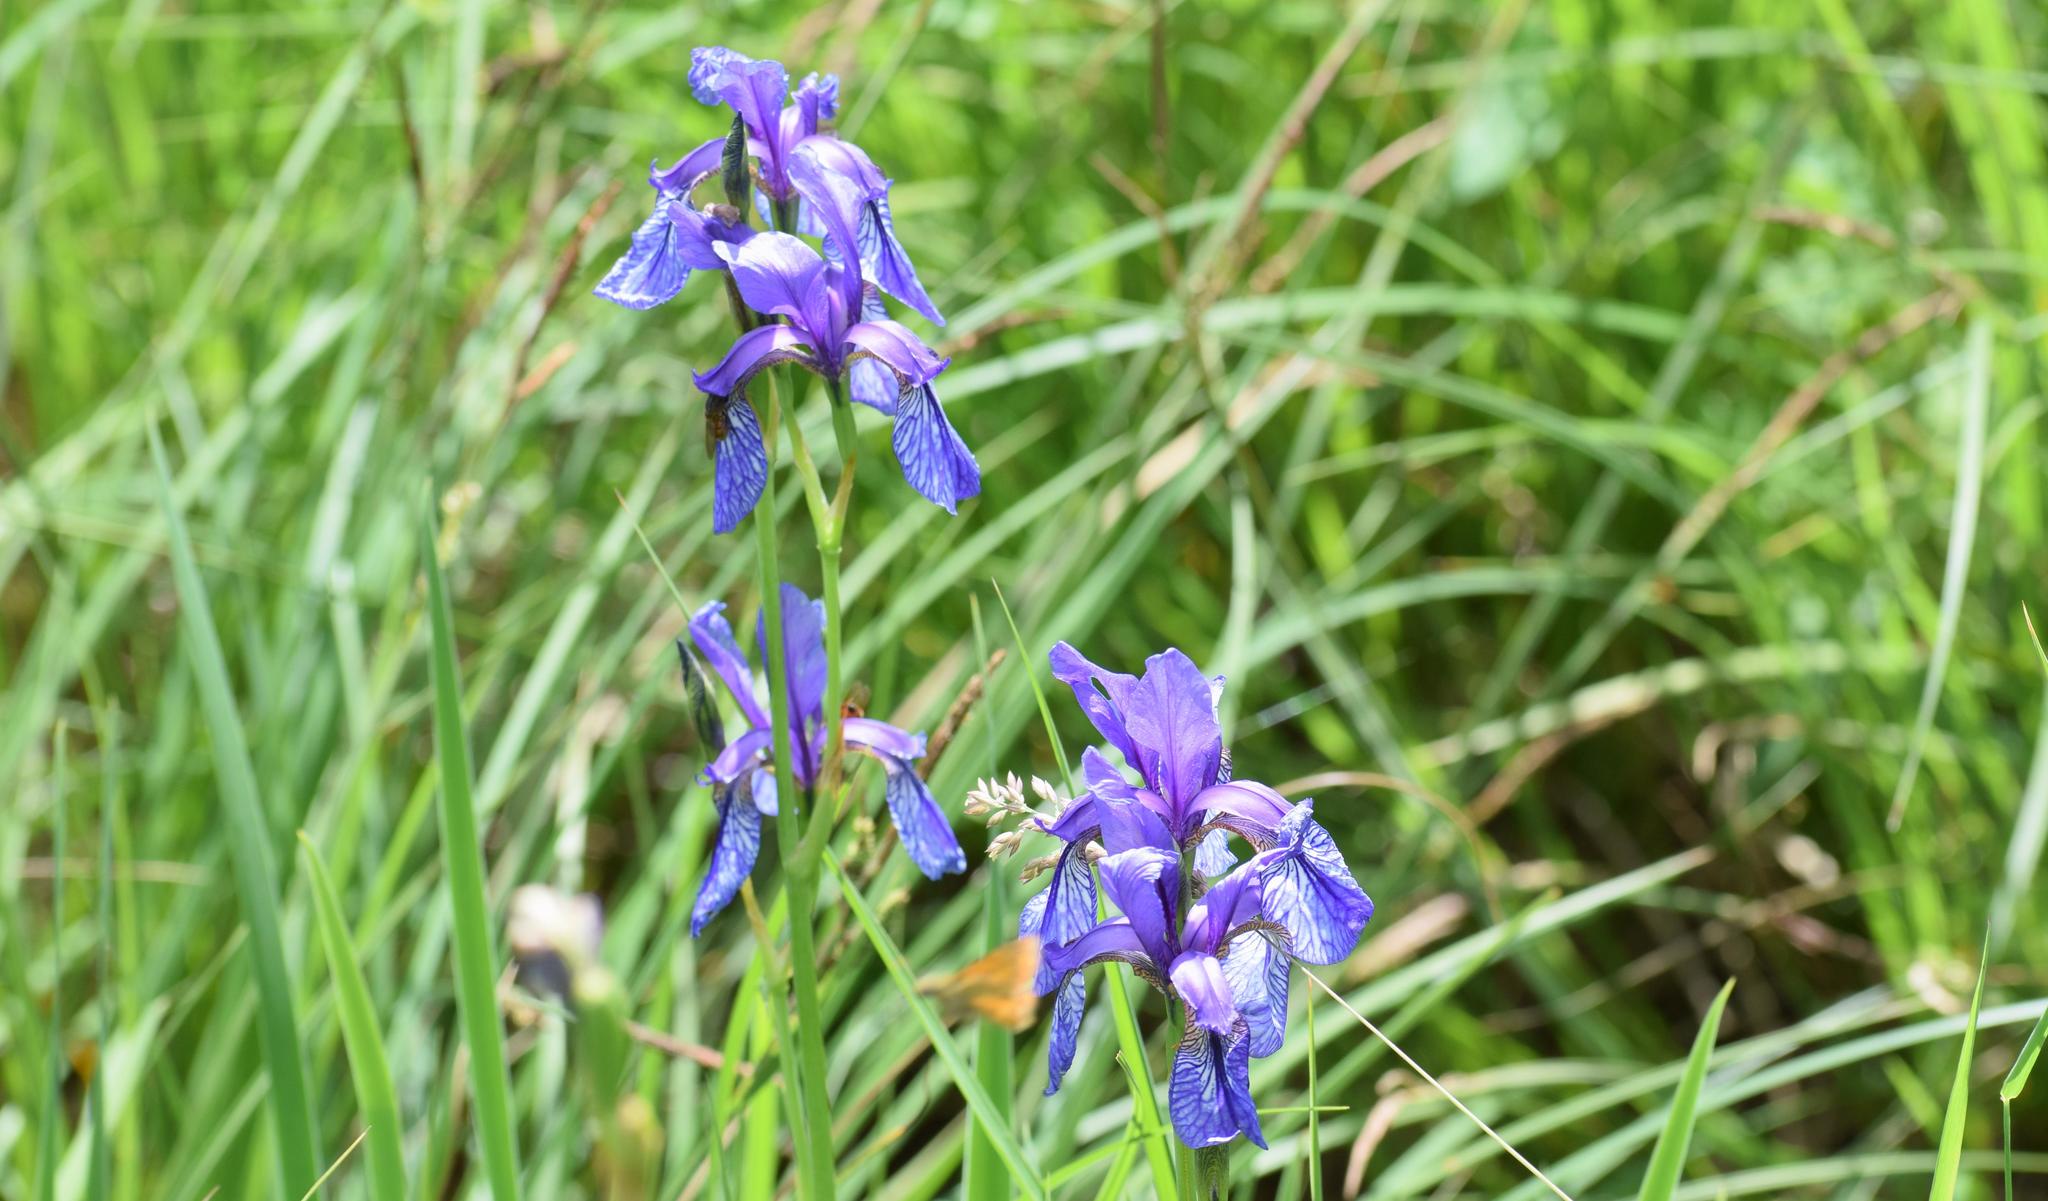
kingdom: Plantae
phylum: Tracheophyta
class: Liliopsida
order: Asparagales
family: Iridaceae
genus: Iris
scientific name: Iris sibirica
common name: Siberian iris
